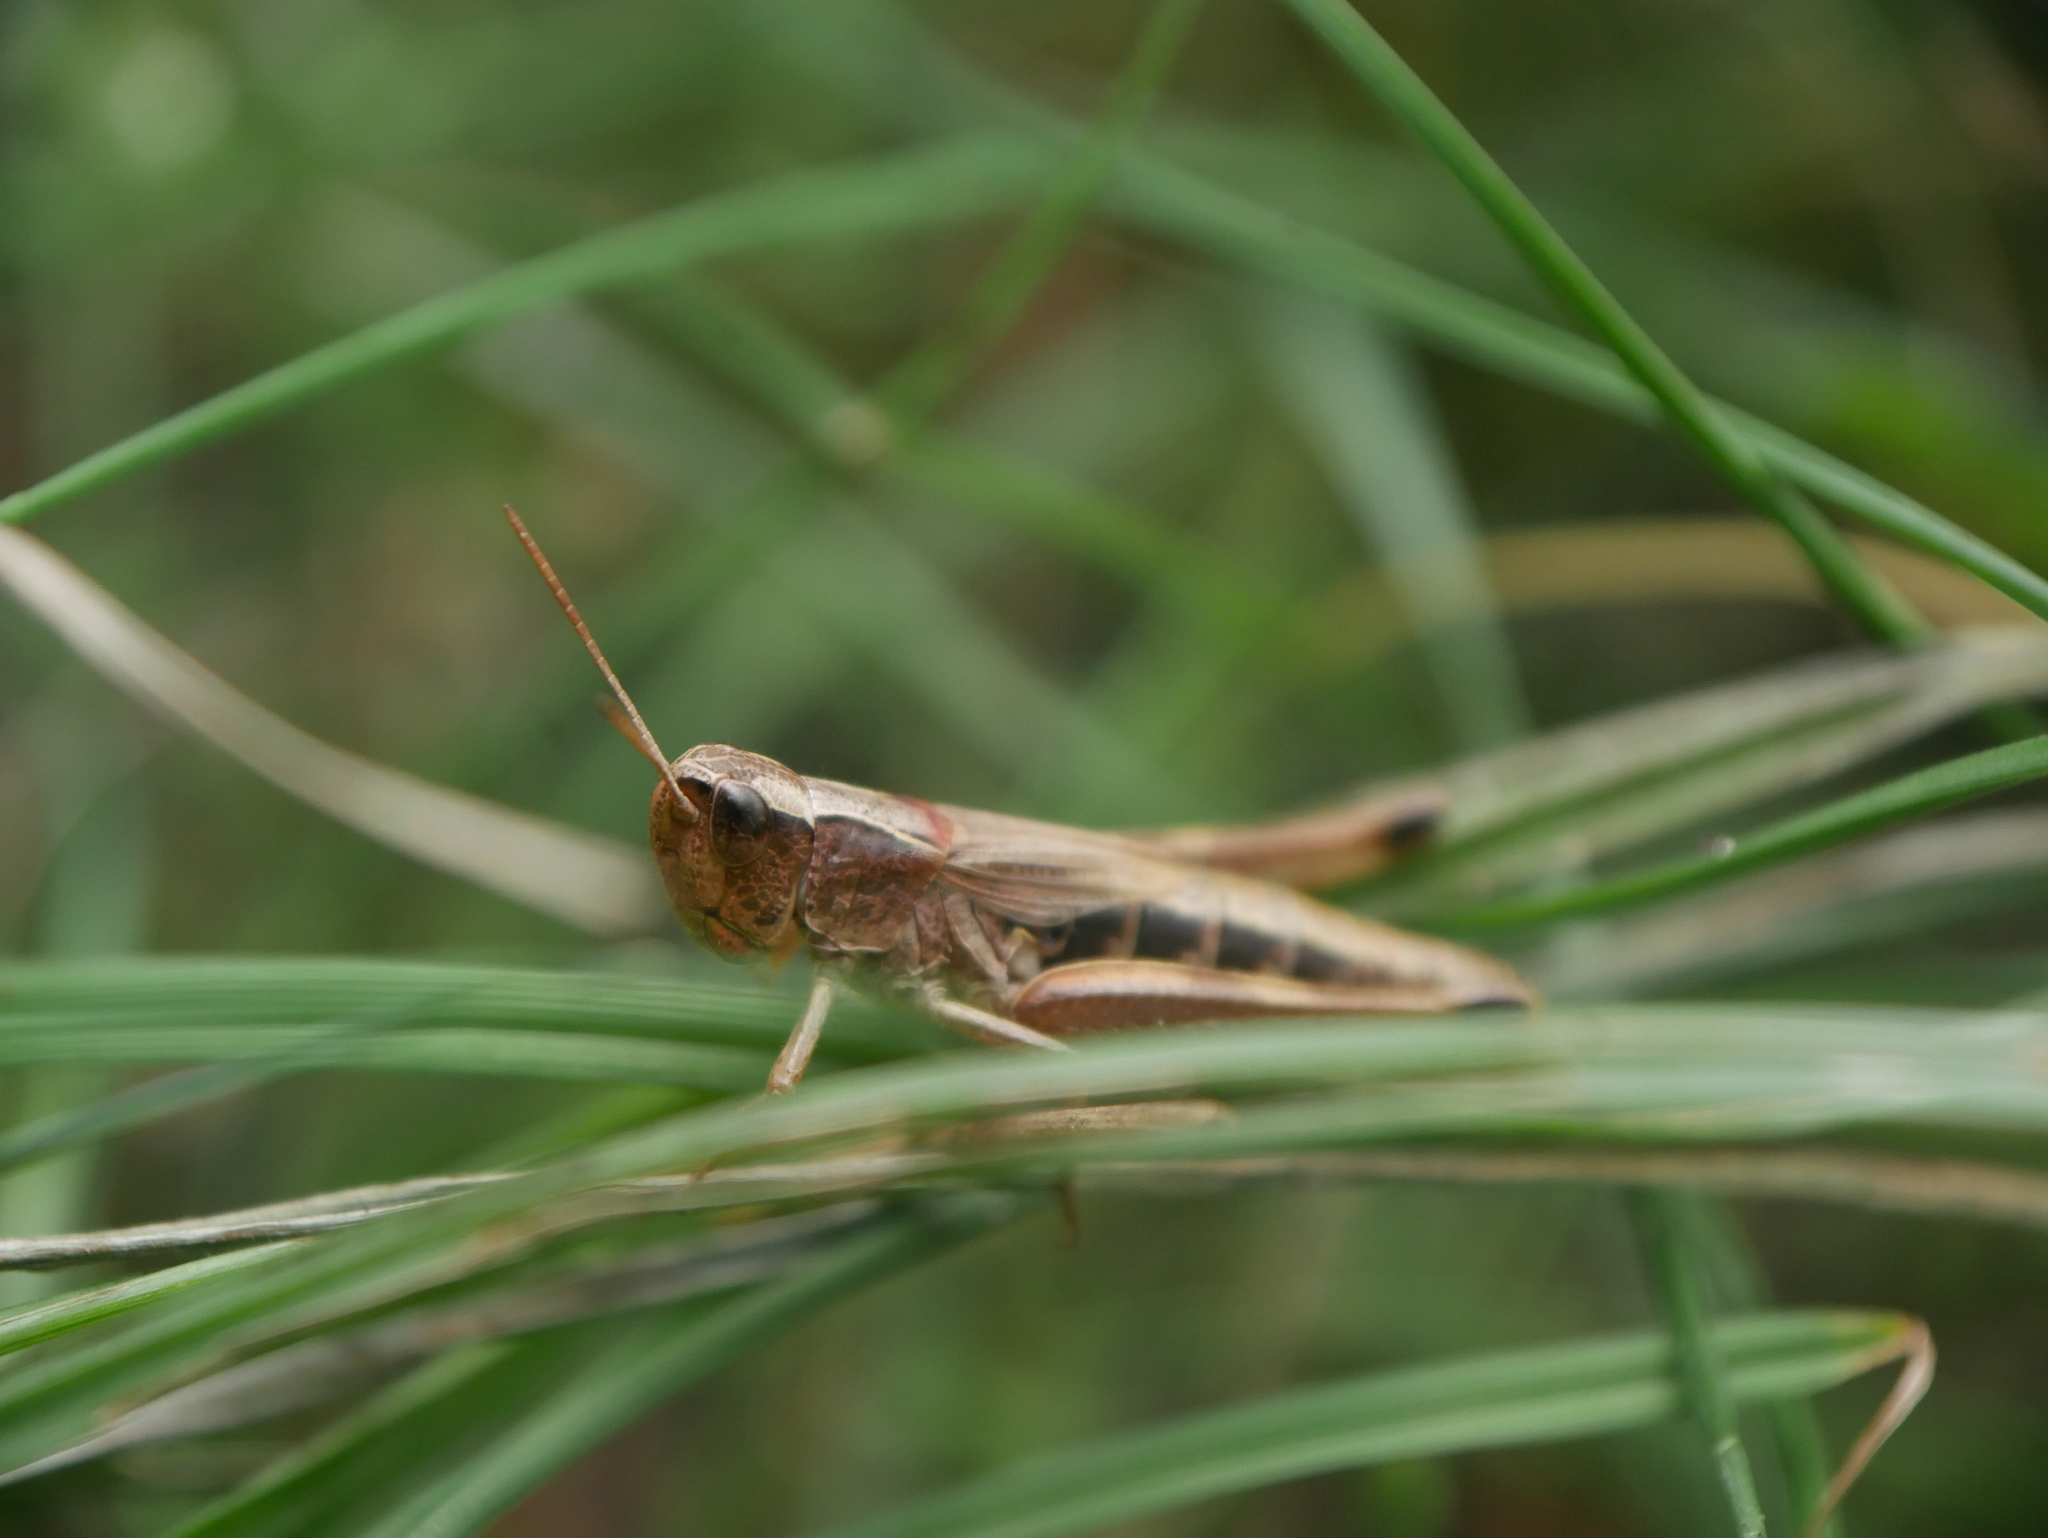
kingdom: Animalia
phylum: Arthropoda
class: Insecta
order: Orthoptera
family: Acrididae
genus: Pseudochorthippus
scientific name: Pseudochorthippus parallelus
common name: Meadow grasshopper
